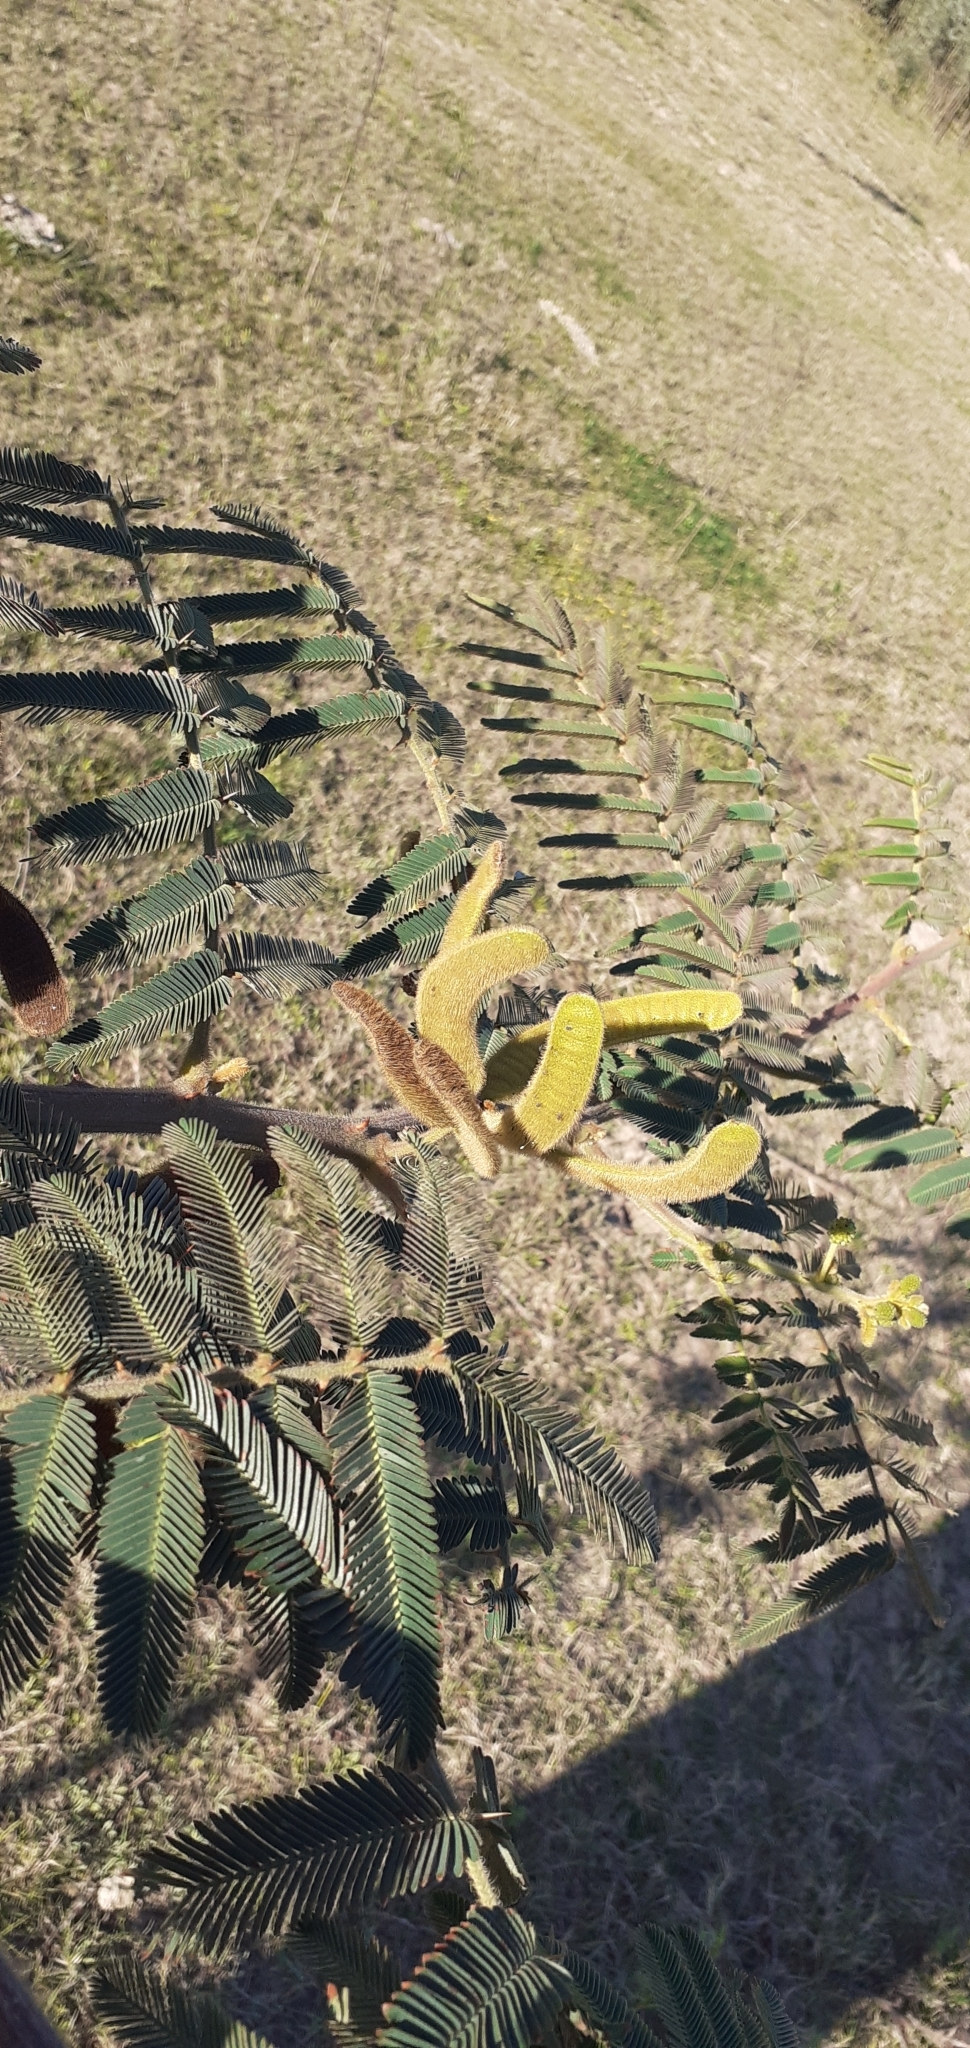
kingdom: Plantae
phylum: Tracheophyta
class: Magnoliopsida
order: Fabales
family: Fabaceae
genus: Mimosa
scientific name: Mimosa pigra
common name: Black mimosa
